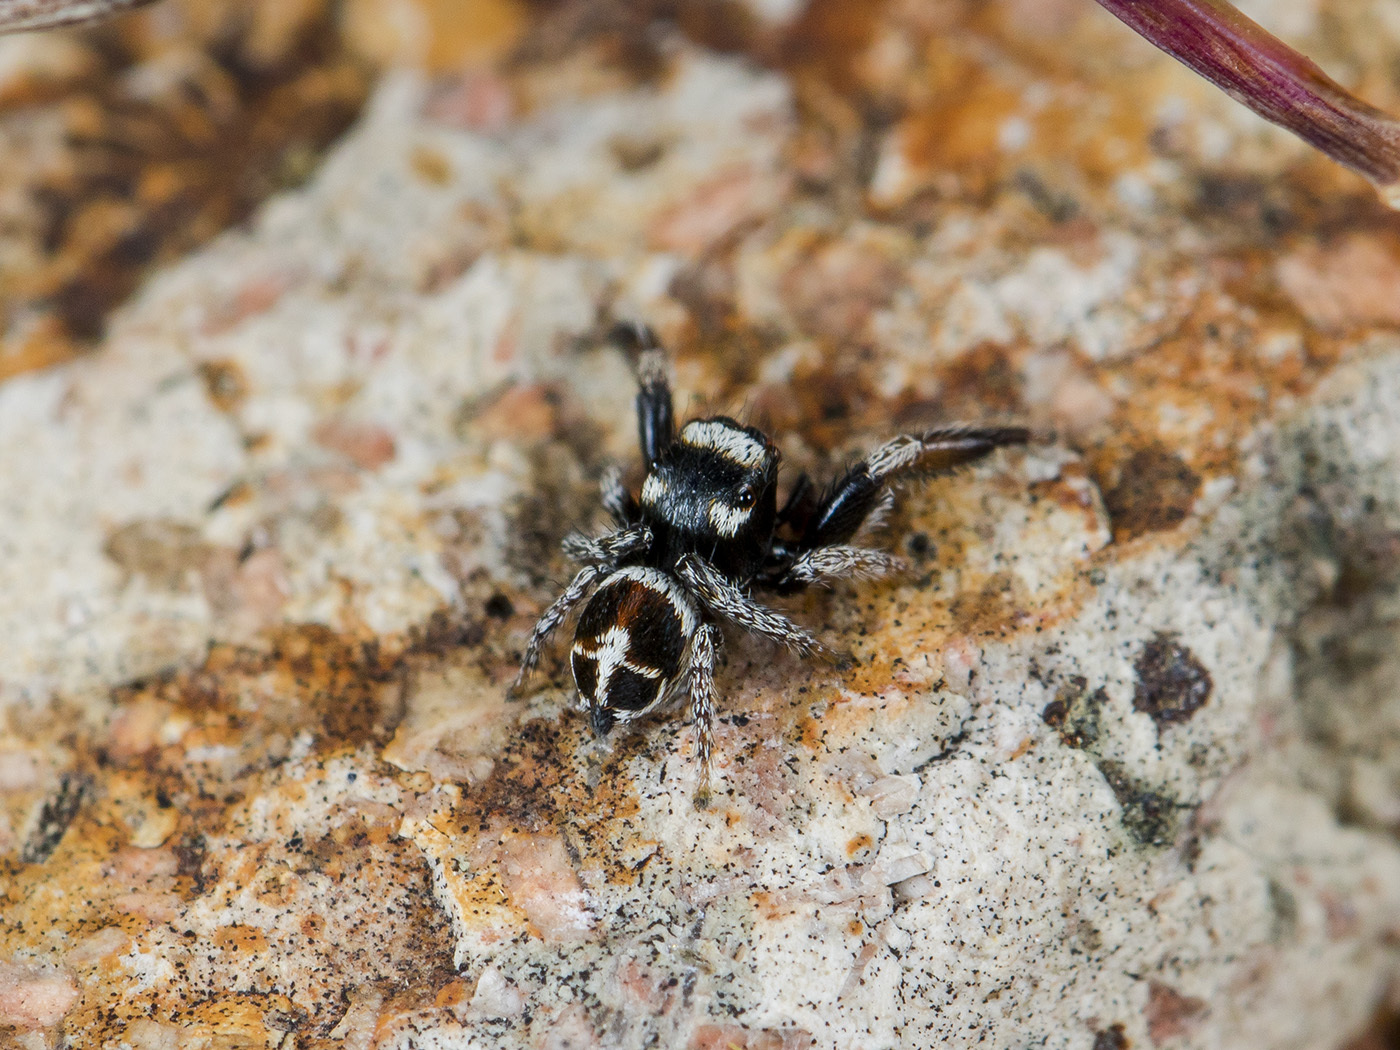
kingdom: Animalia
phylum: Arthropoda
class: Arachnida
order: Araneae
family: Salticidae
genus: Pellenes
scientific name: Pellenes geniculatus
